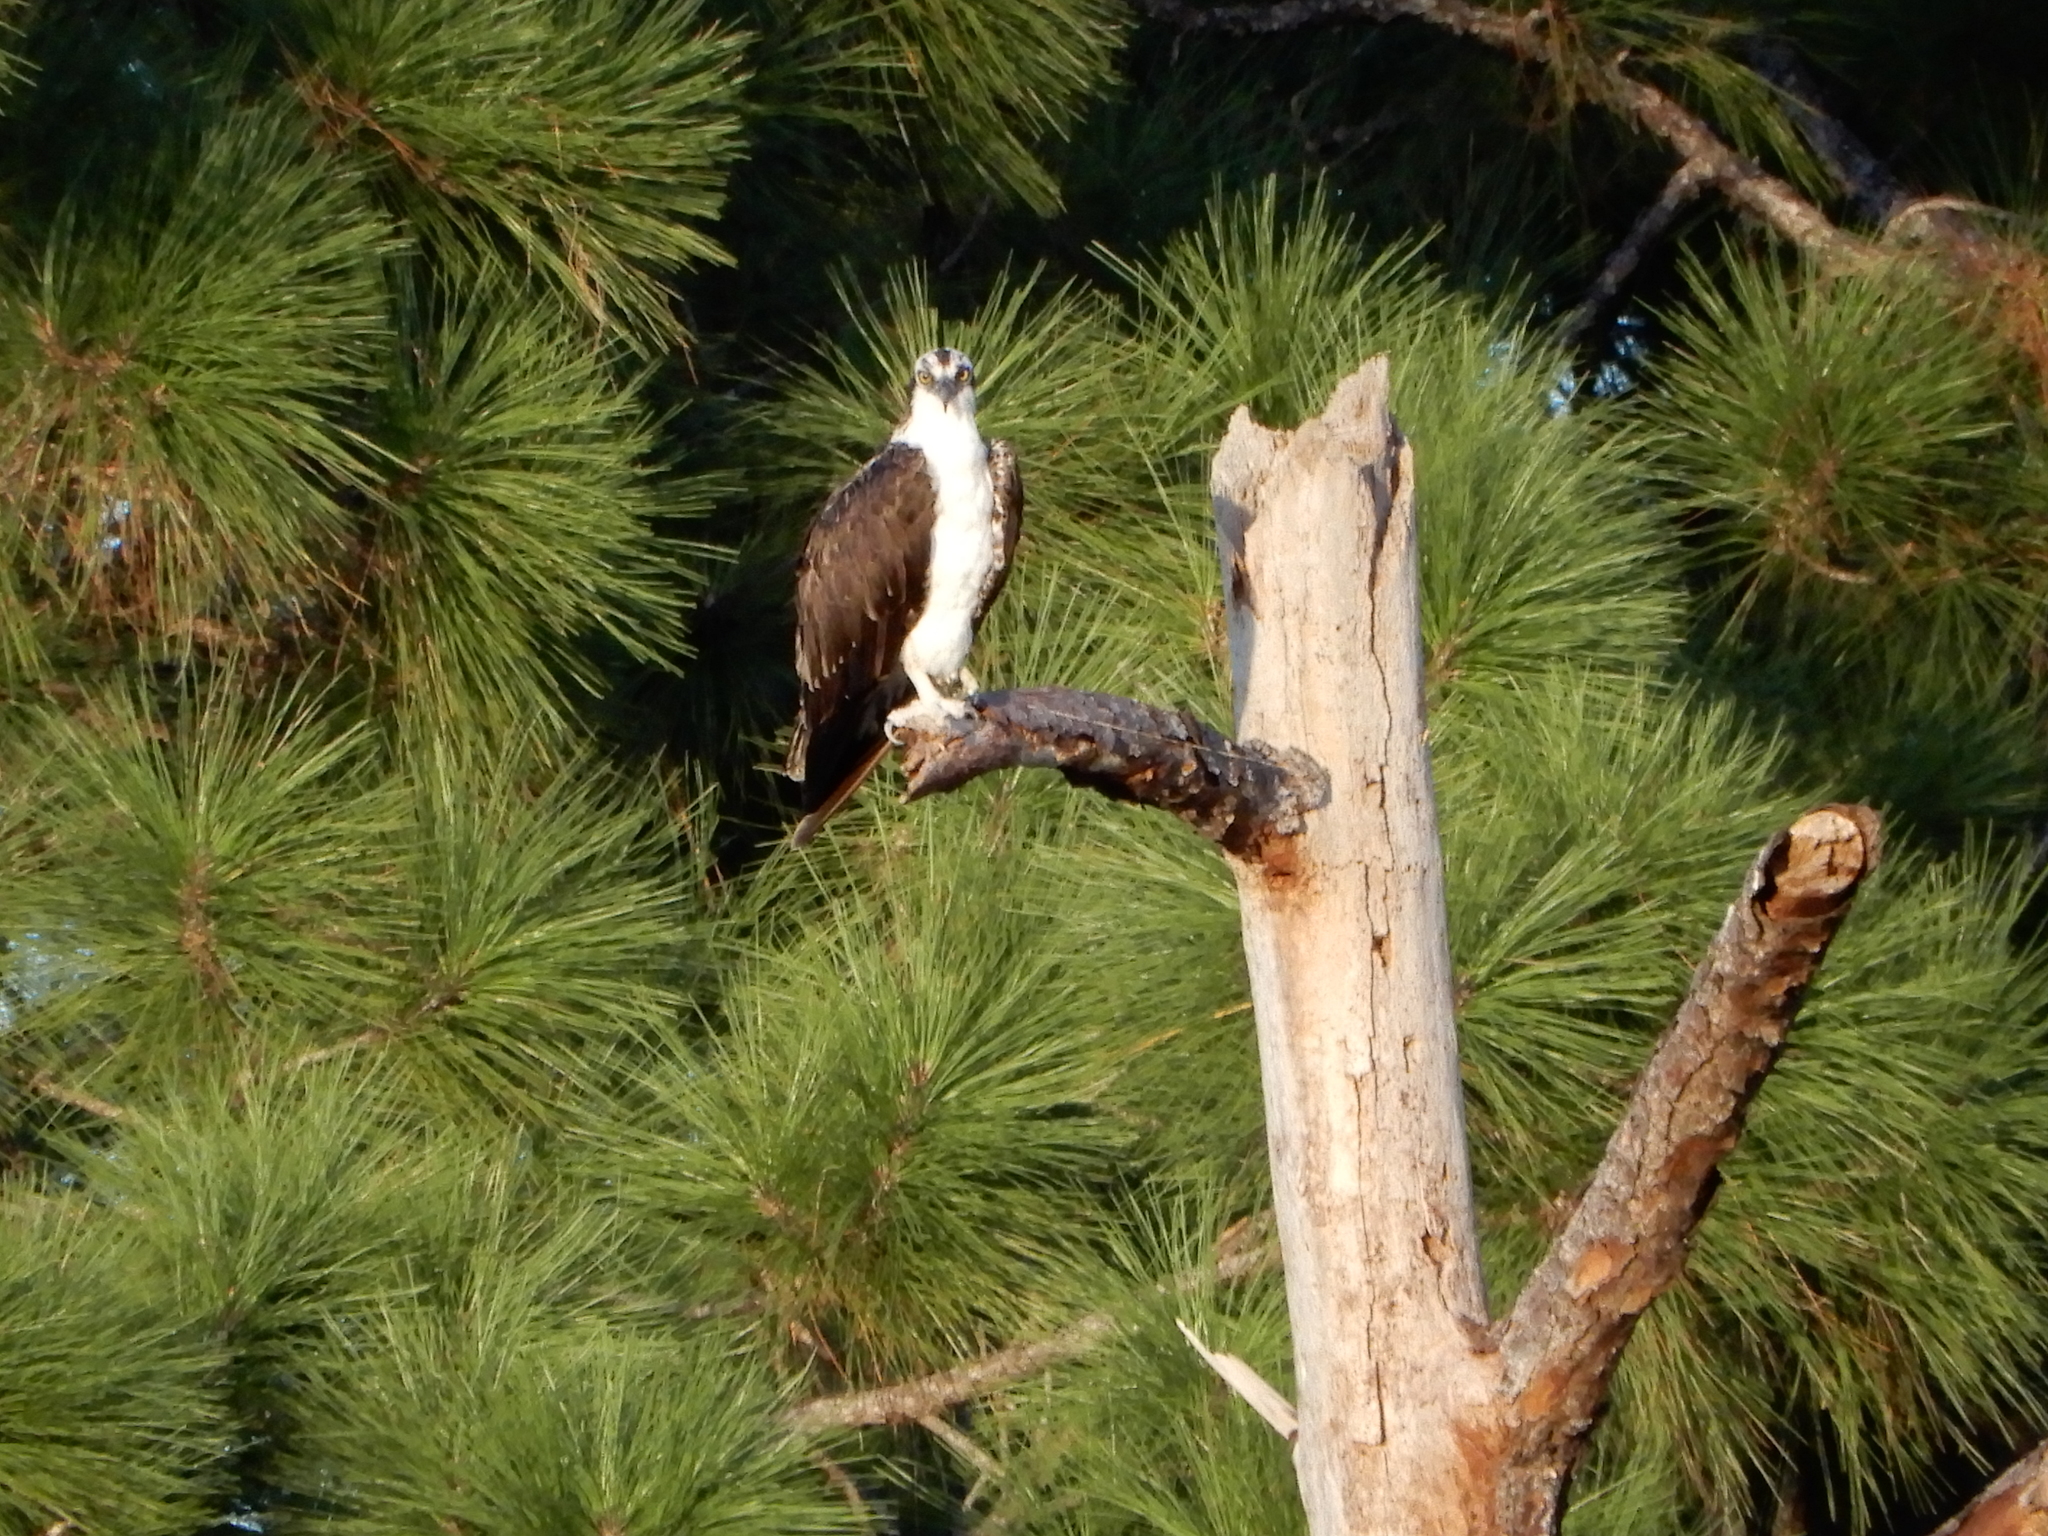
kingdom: Animalia
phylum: Chordata
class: Aves
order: Accipitriformes
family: Pandionidae
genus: Pandion
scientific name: Pandion haliaetus
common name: Osprey
